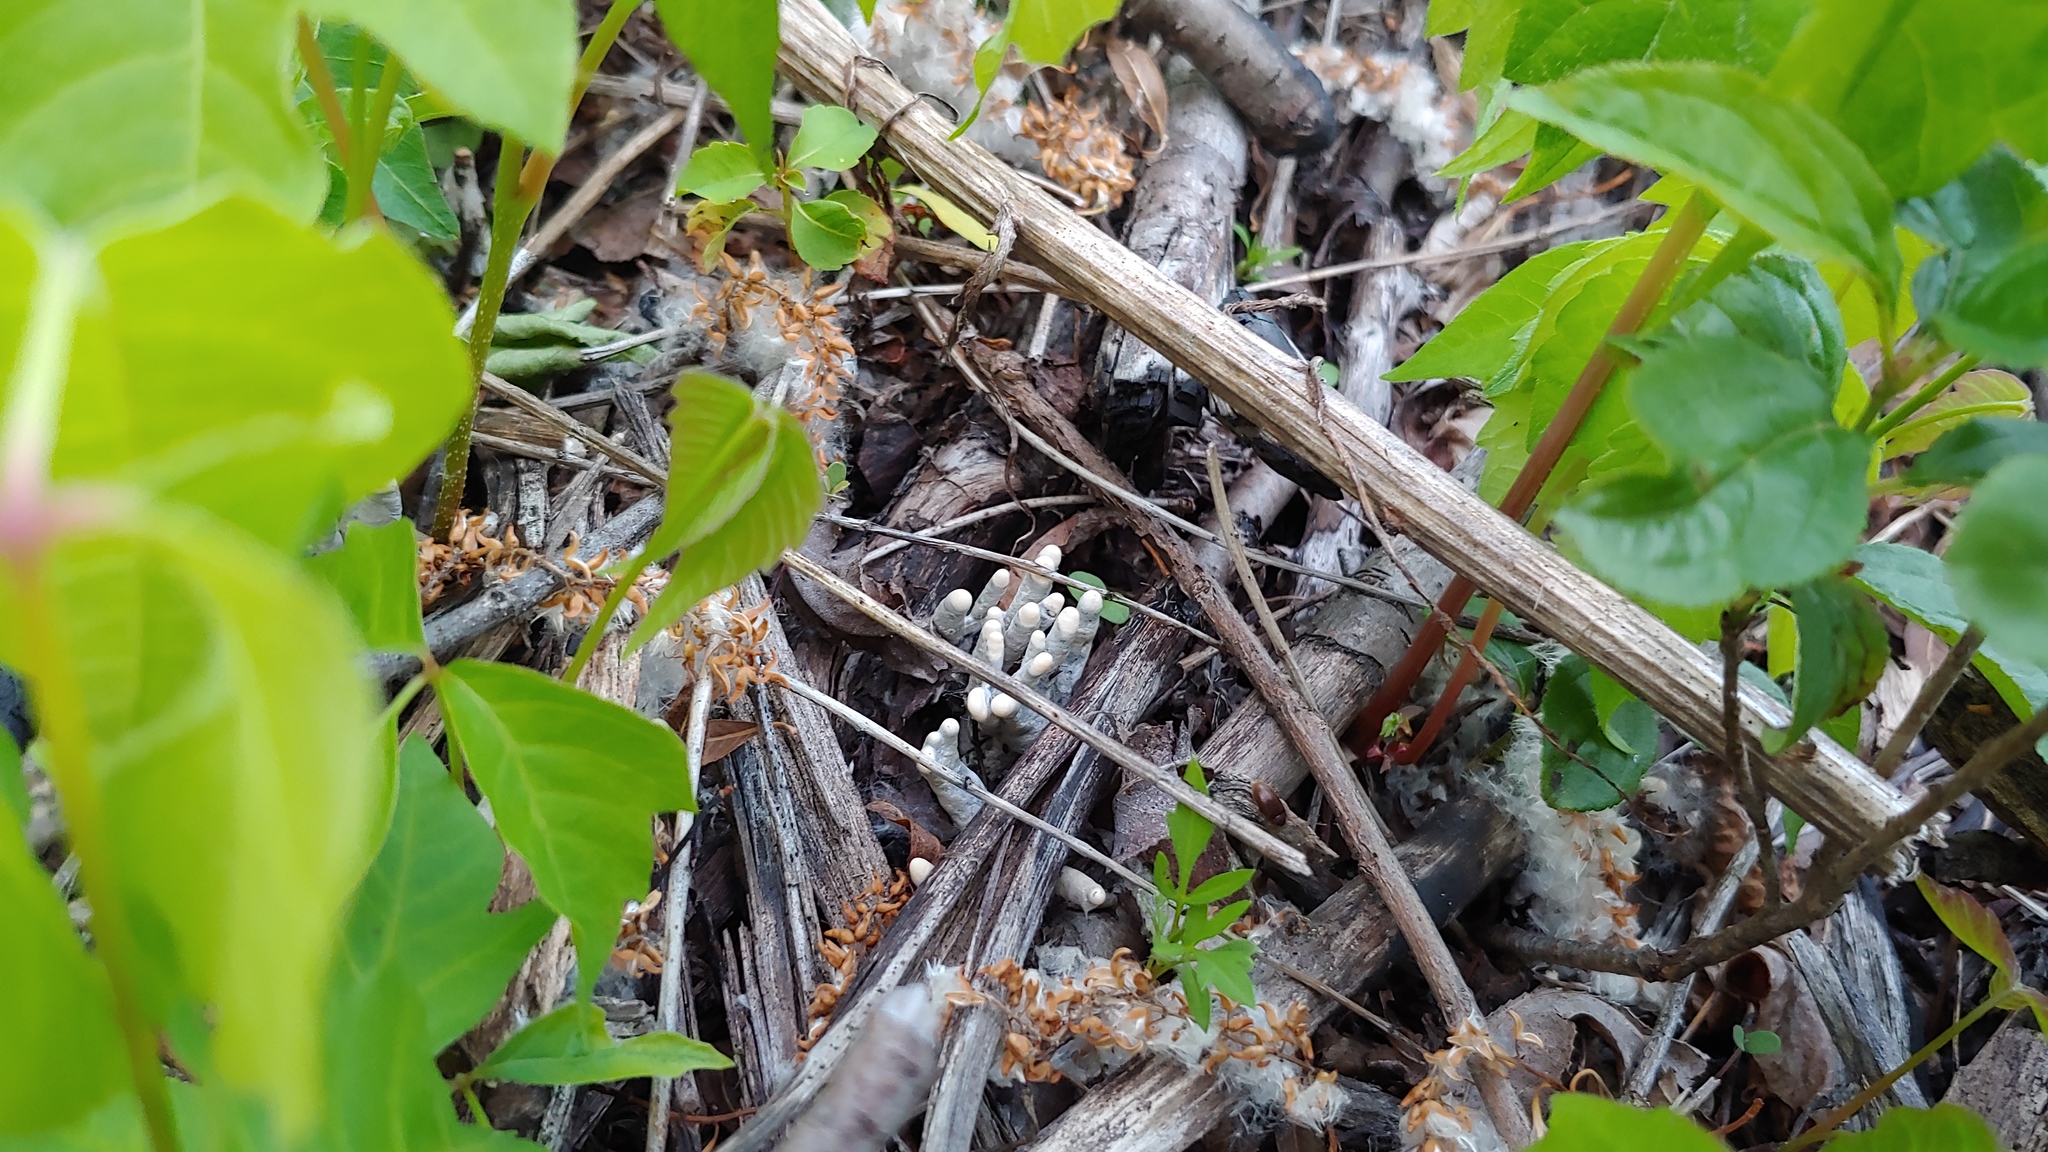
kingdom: Fungi
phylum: Ascomycota
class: Sordariomycetes
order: Xylariales
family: Xylariaceae
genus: Xylaria
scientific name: Xylaria polymorpha
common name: Dead man's fingers
